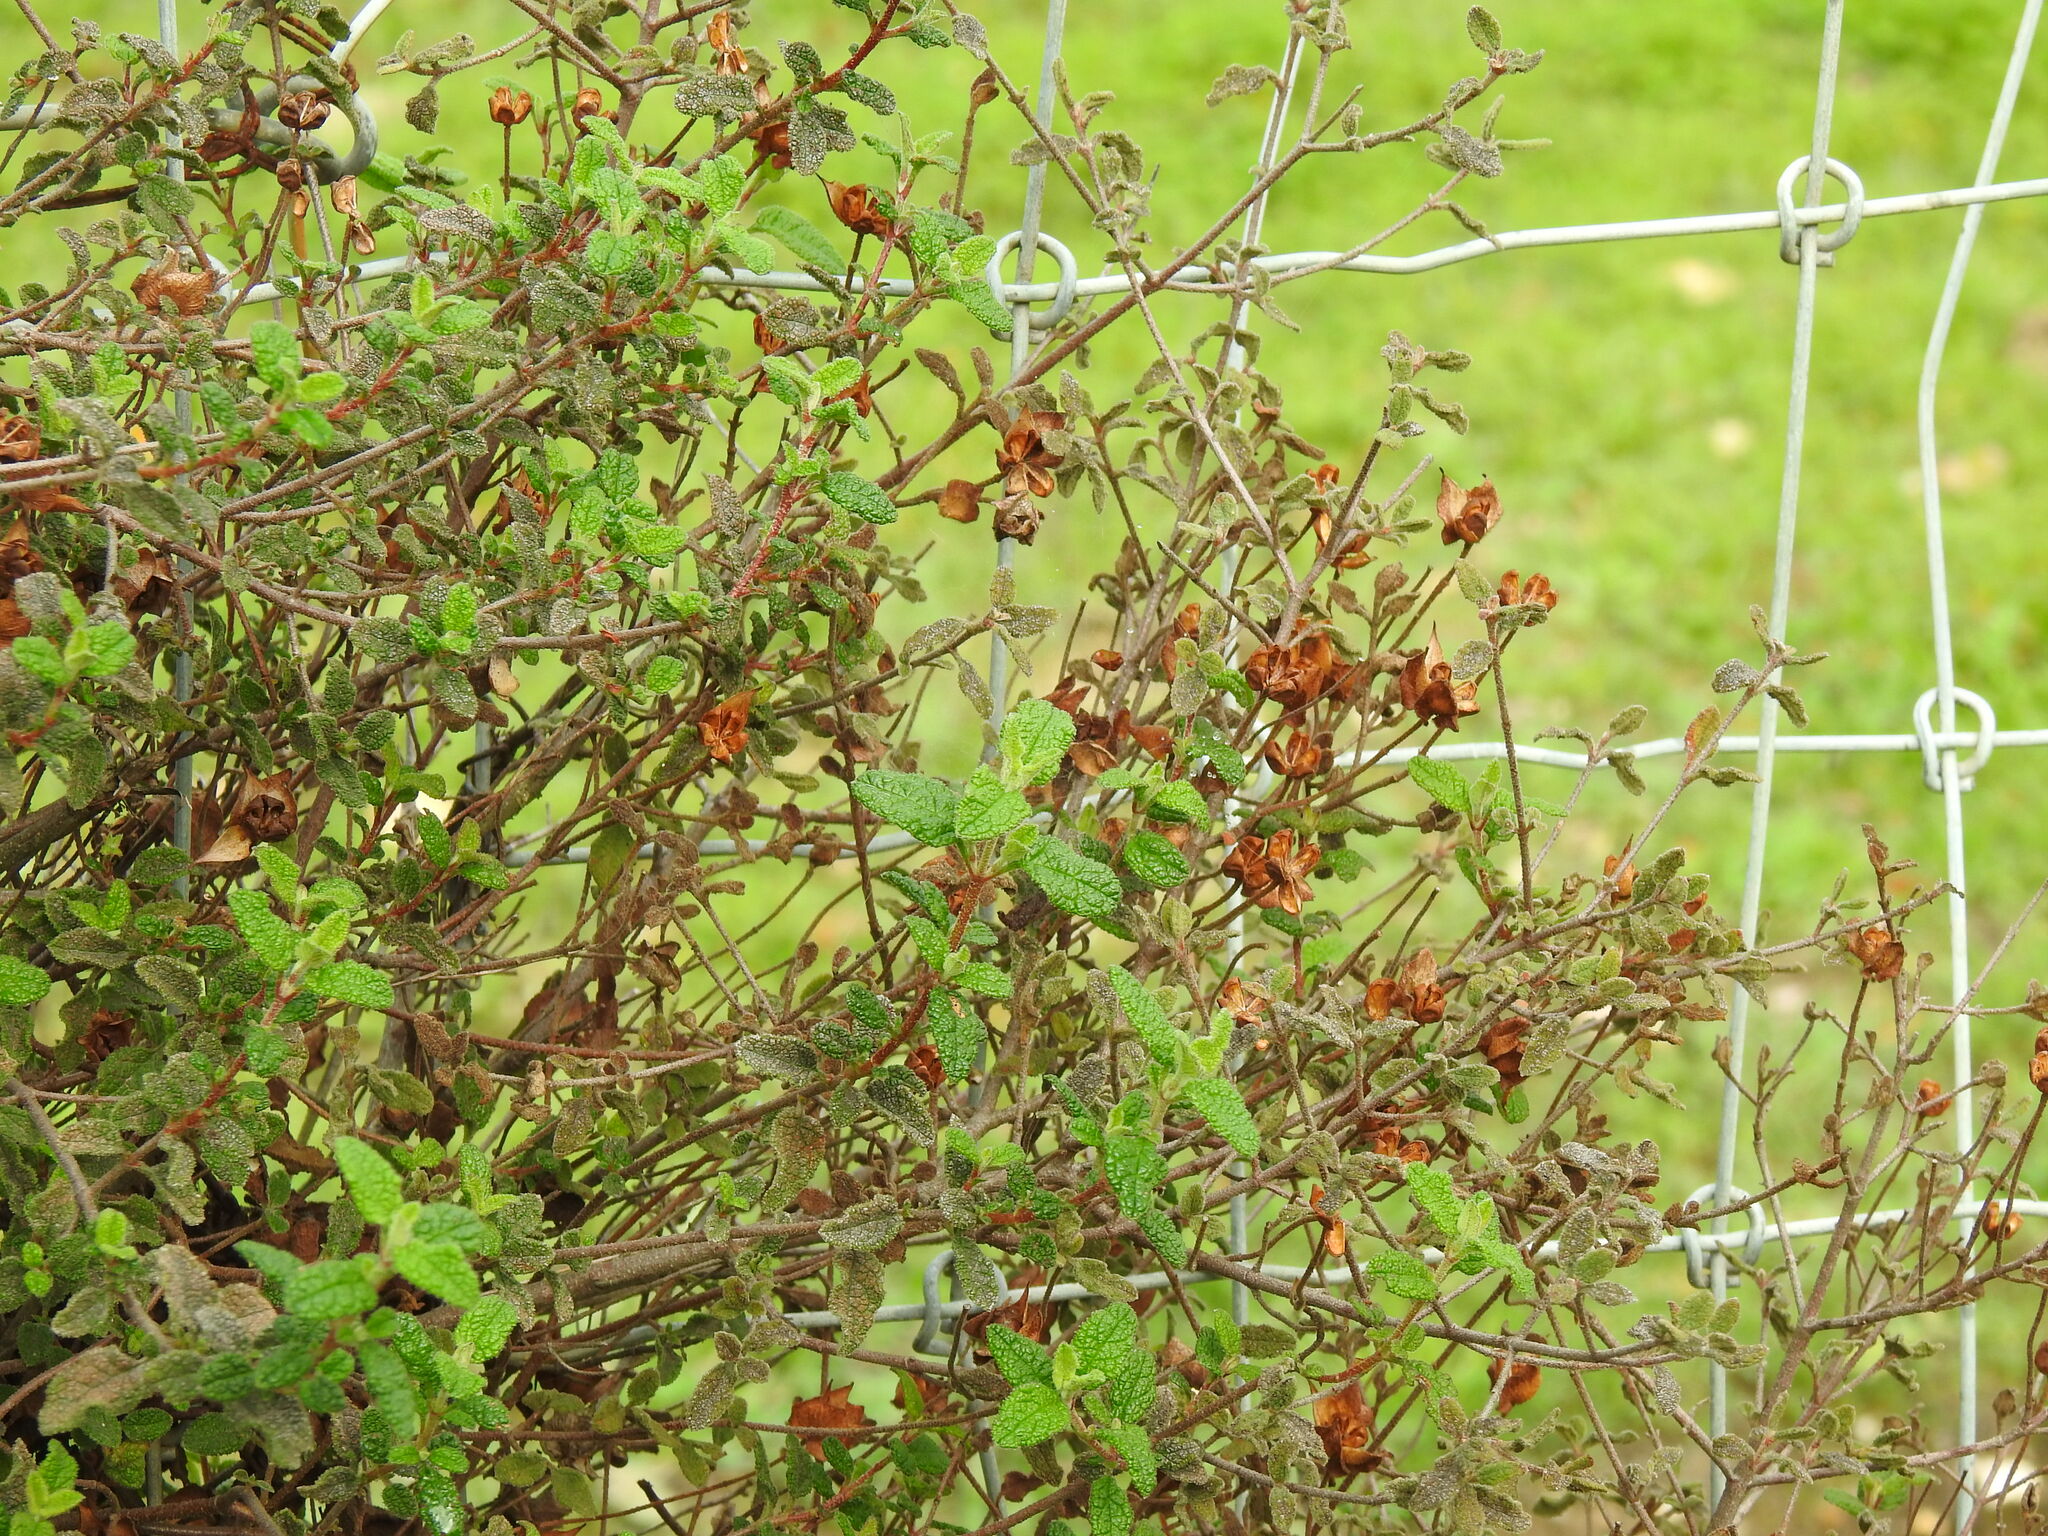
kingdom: Plantae
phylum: Tracheophyta
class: Magnoliopsida
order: Malvales
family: Cistaceae
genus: Cistus
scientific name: Cistus salviifolius
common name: Salvia cistus
